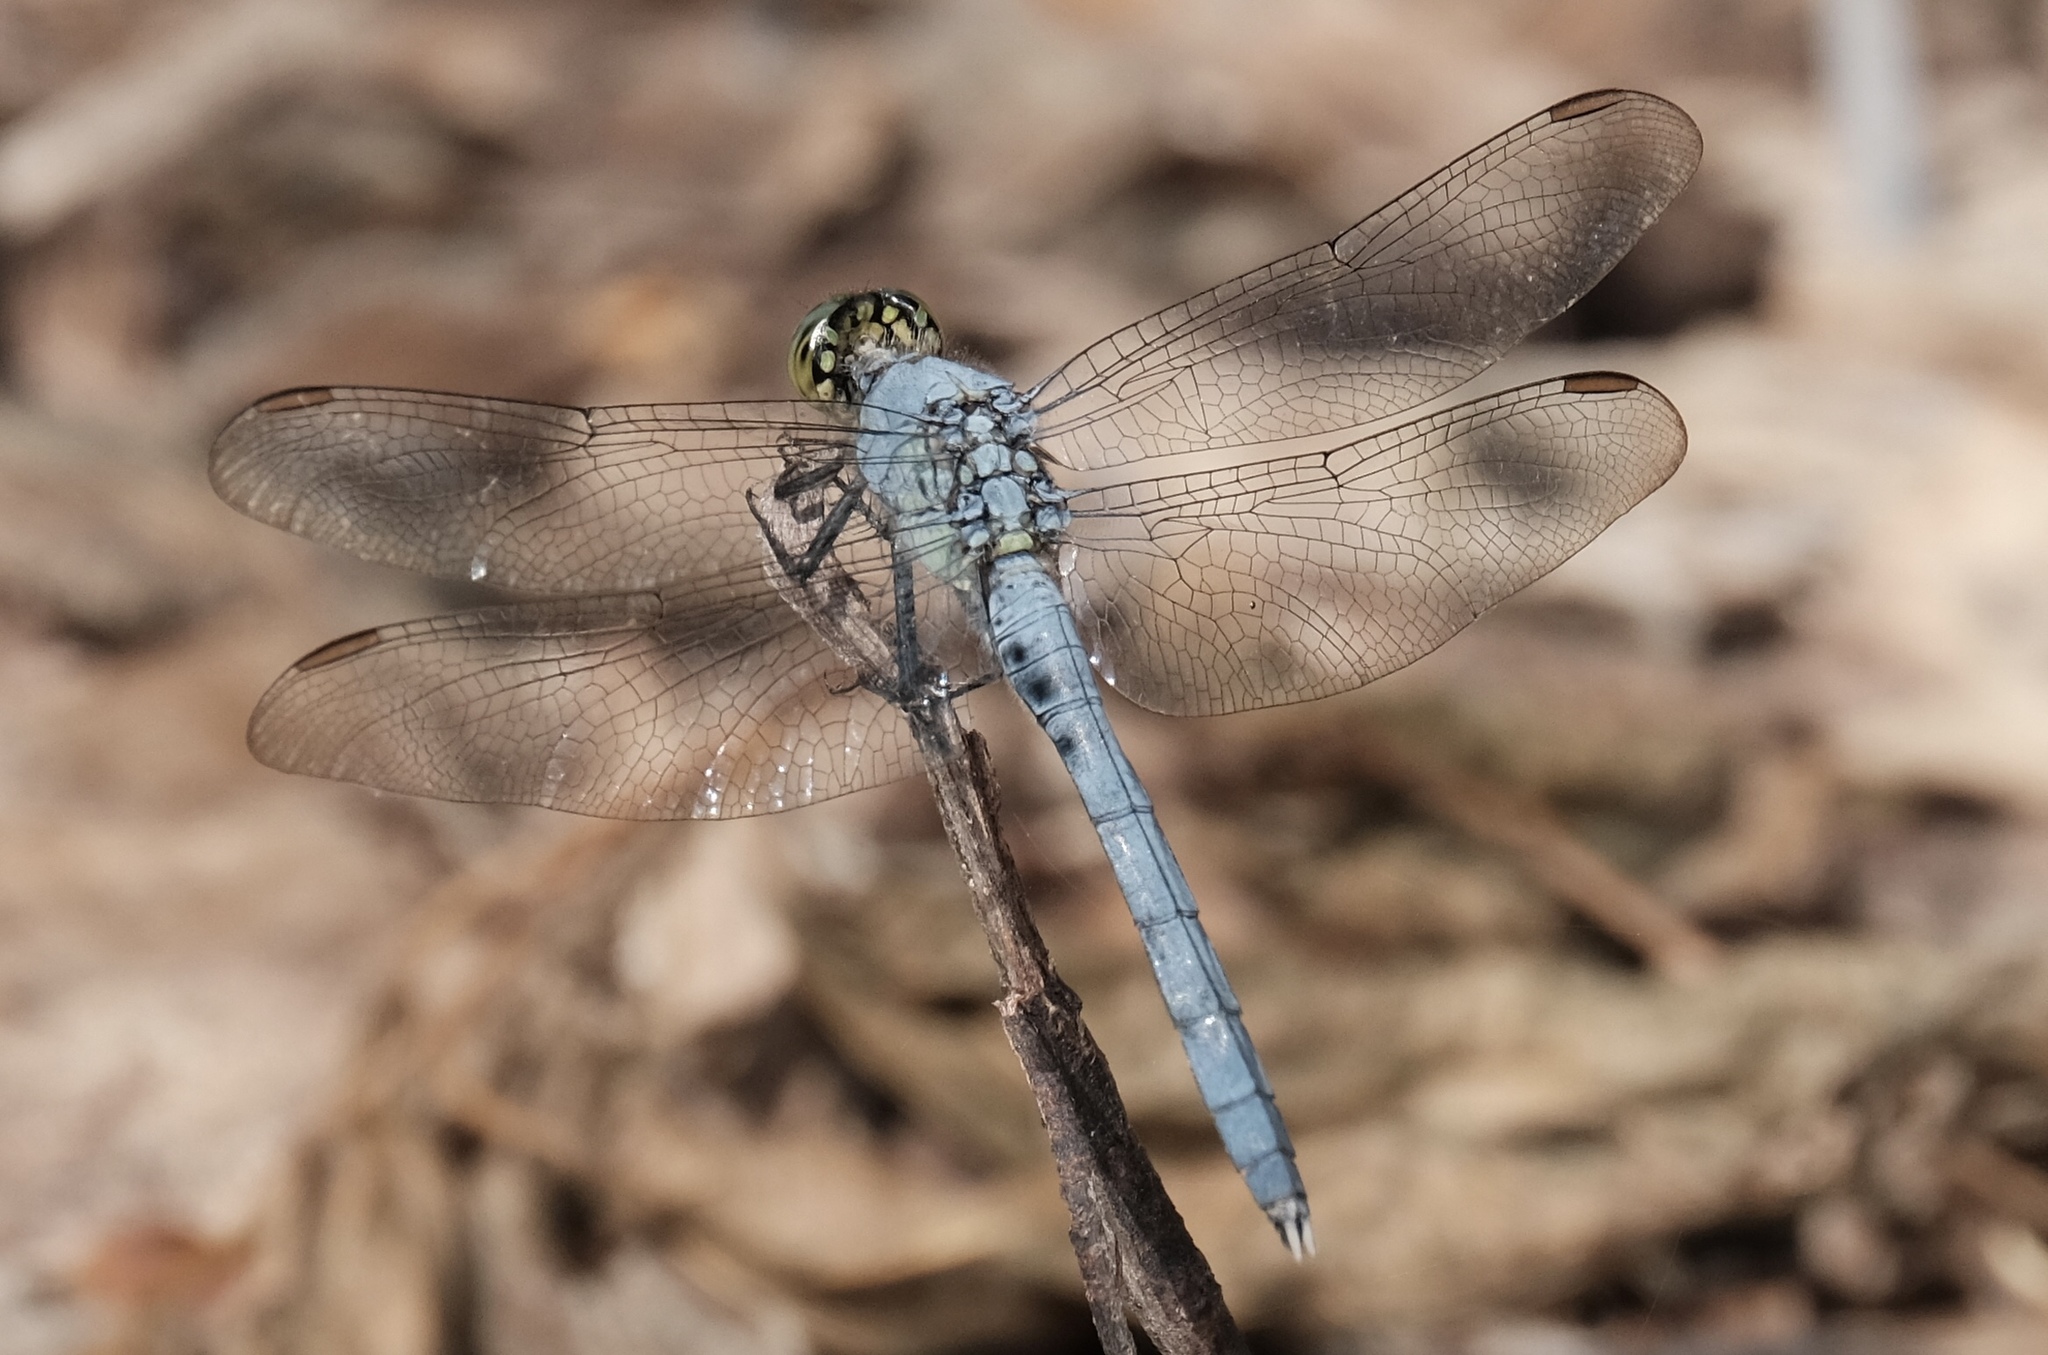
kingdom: Animalia
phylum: Arthropoda
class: Insecta
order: Odonata
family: Libellulidae
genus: Erythemis
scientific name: Erythemis simplicicollis
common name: Eastern pondhawk
